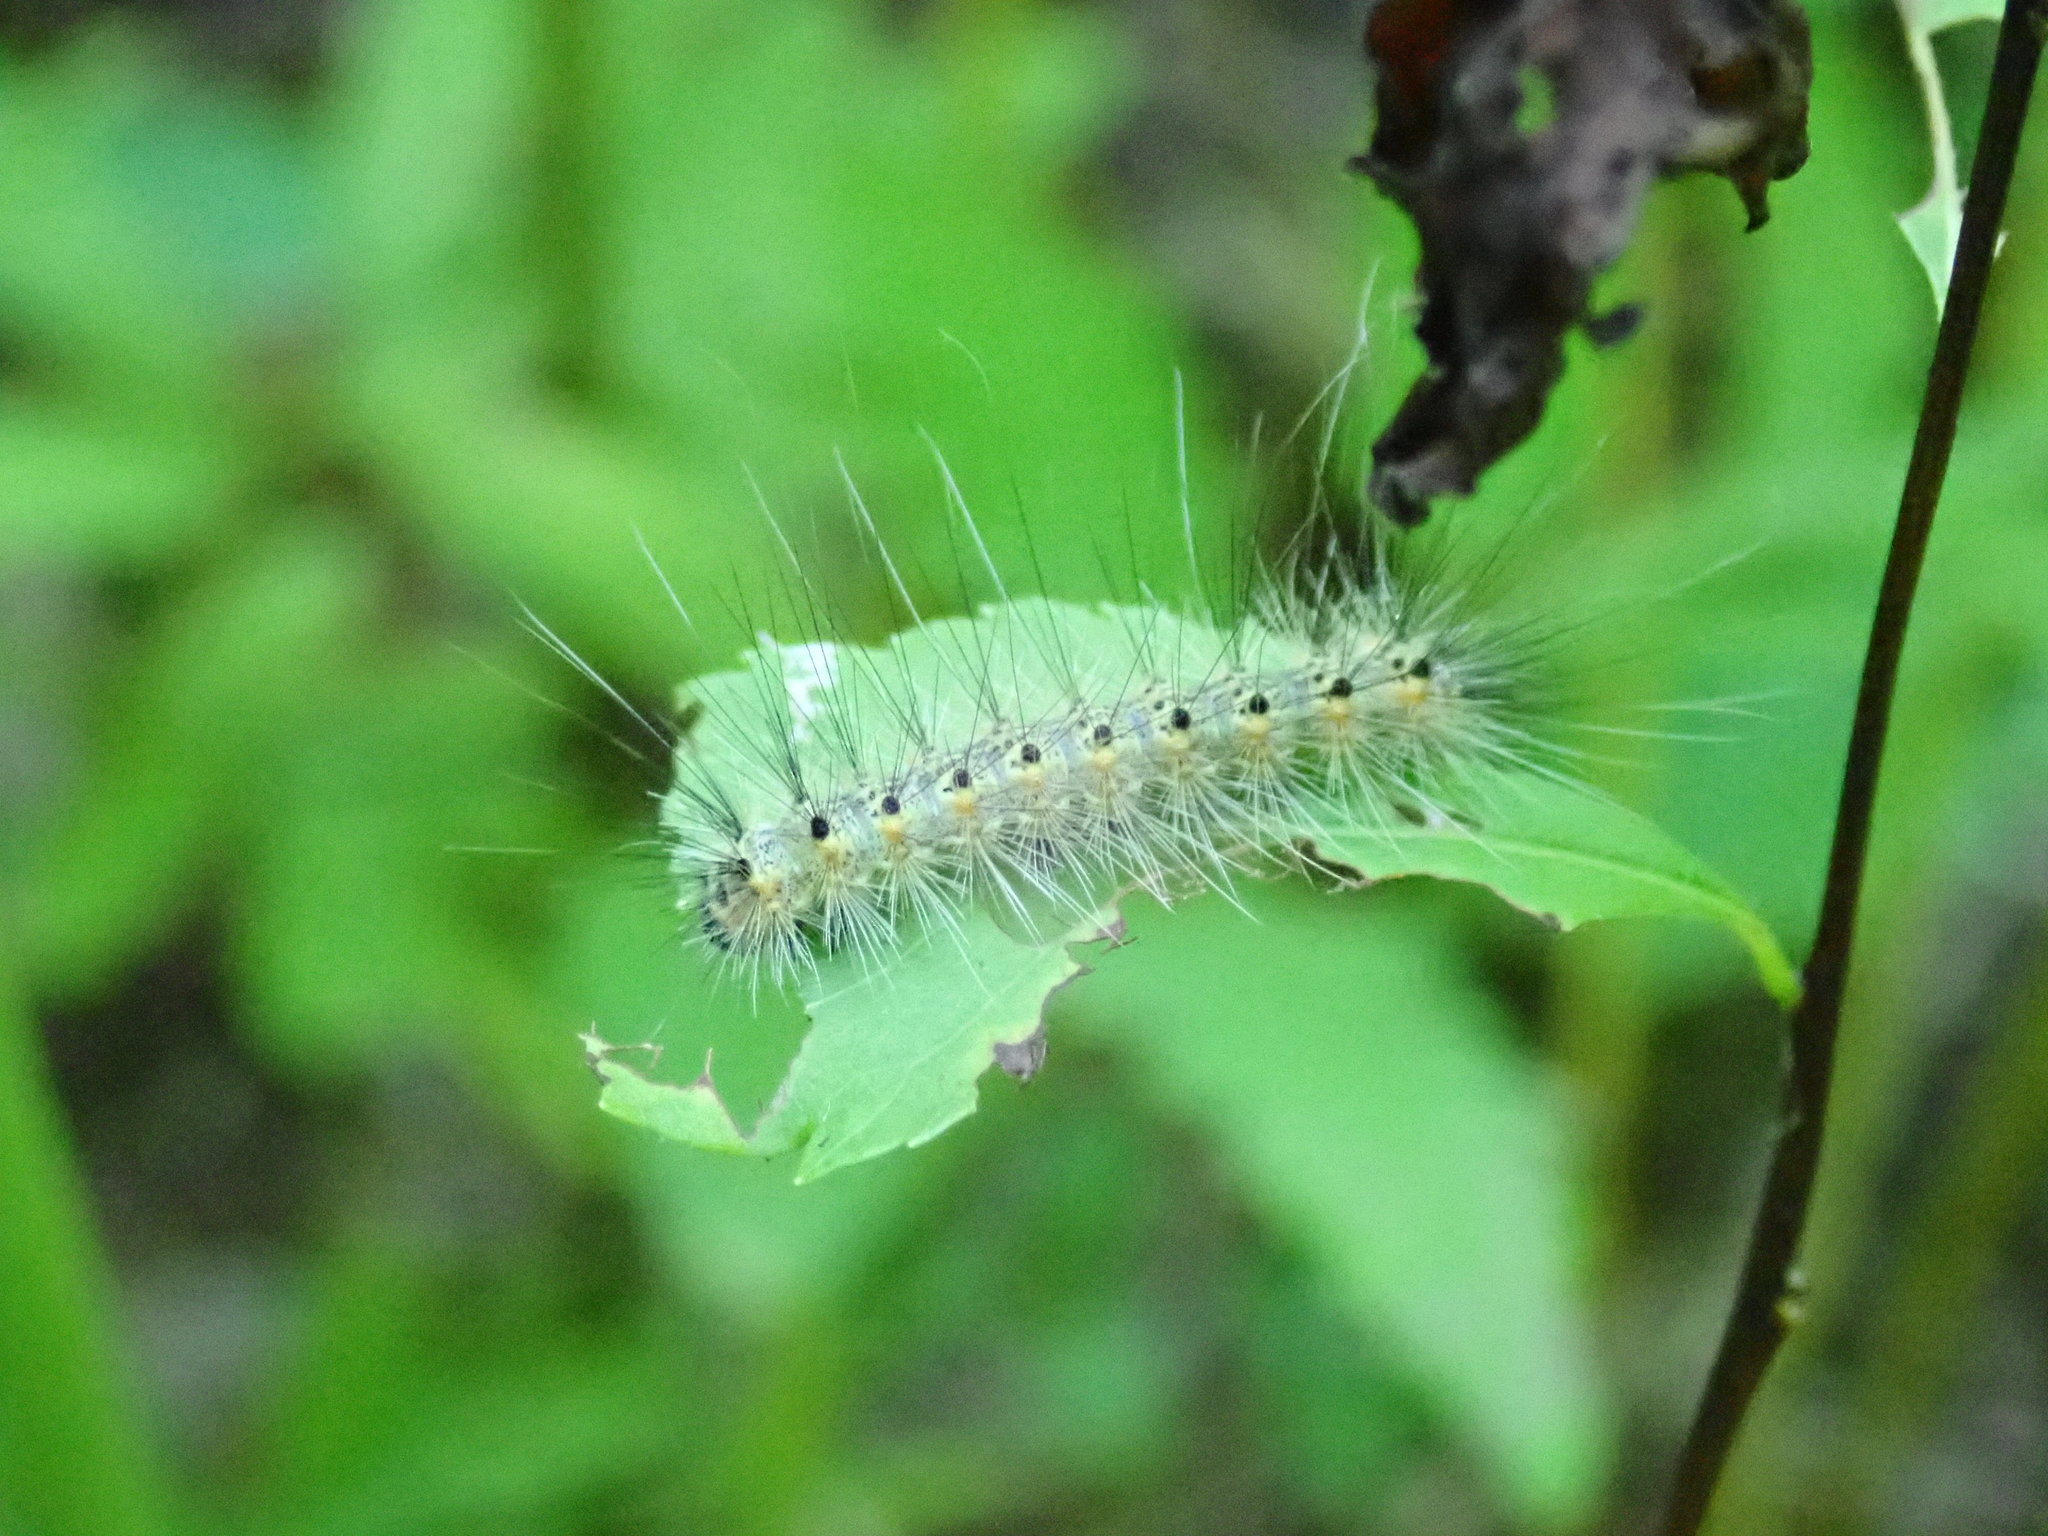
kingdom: Animalia
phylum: Arthropoda
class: Insecta
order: Lepidoptera
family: Erebidae
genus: Hyphantria
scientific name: Hyphantria cunea
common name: American white moth
